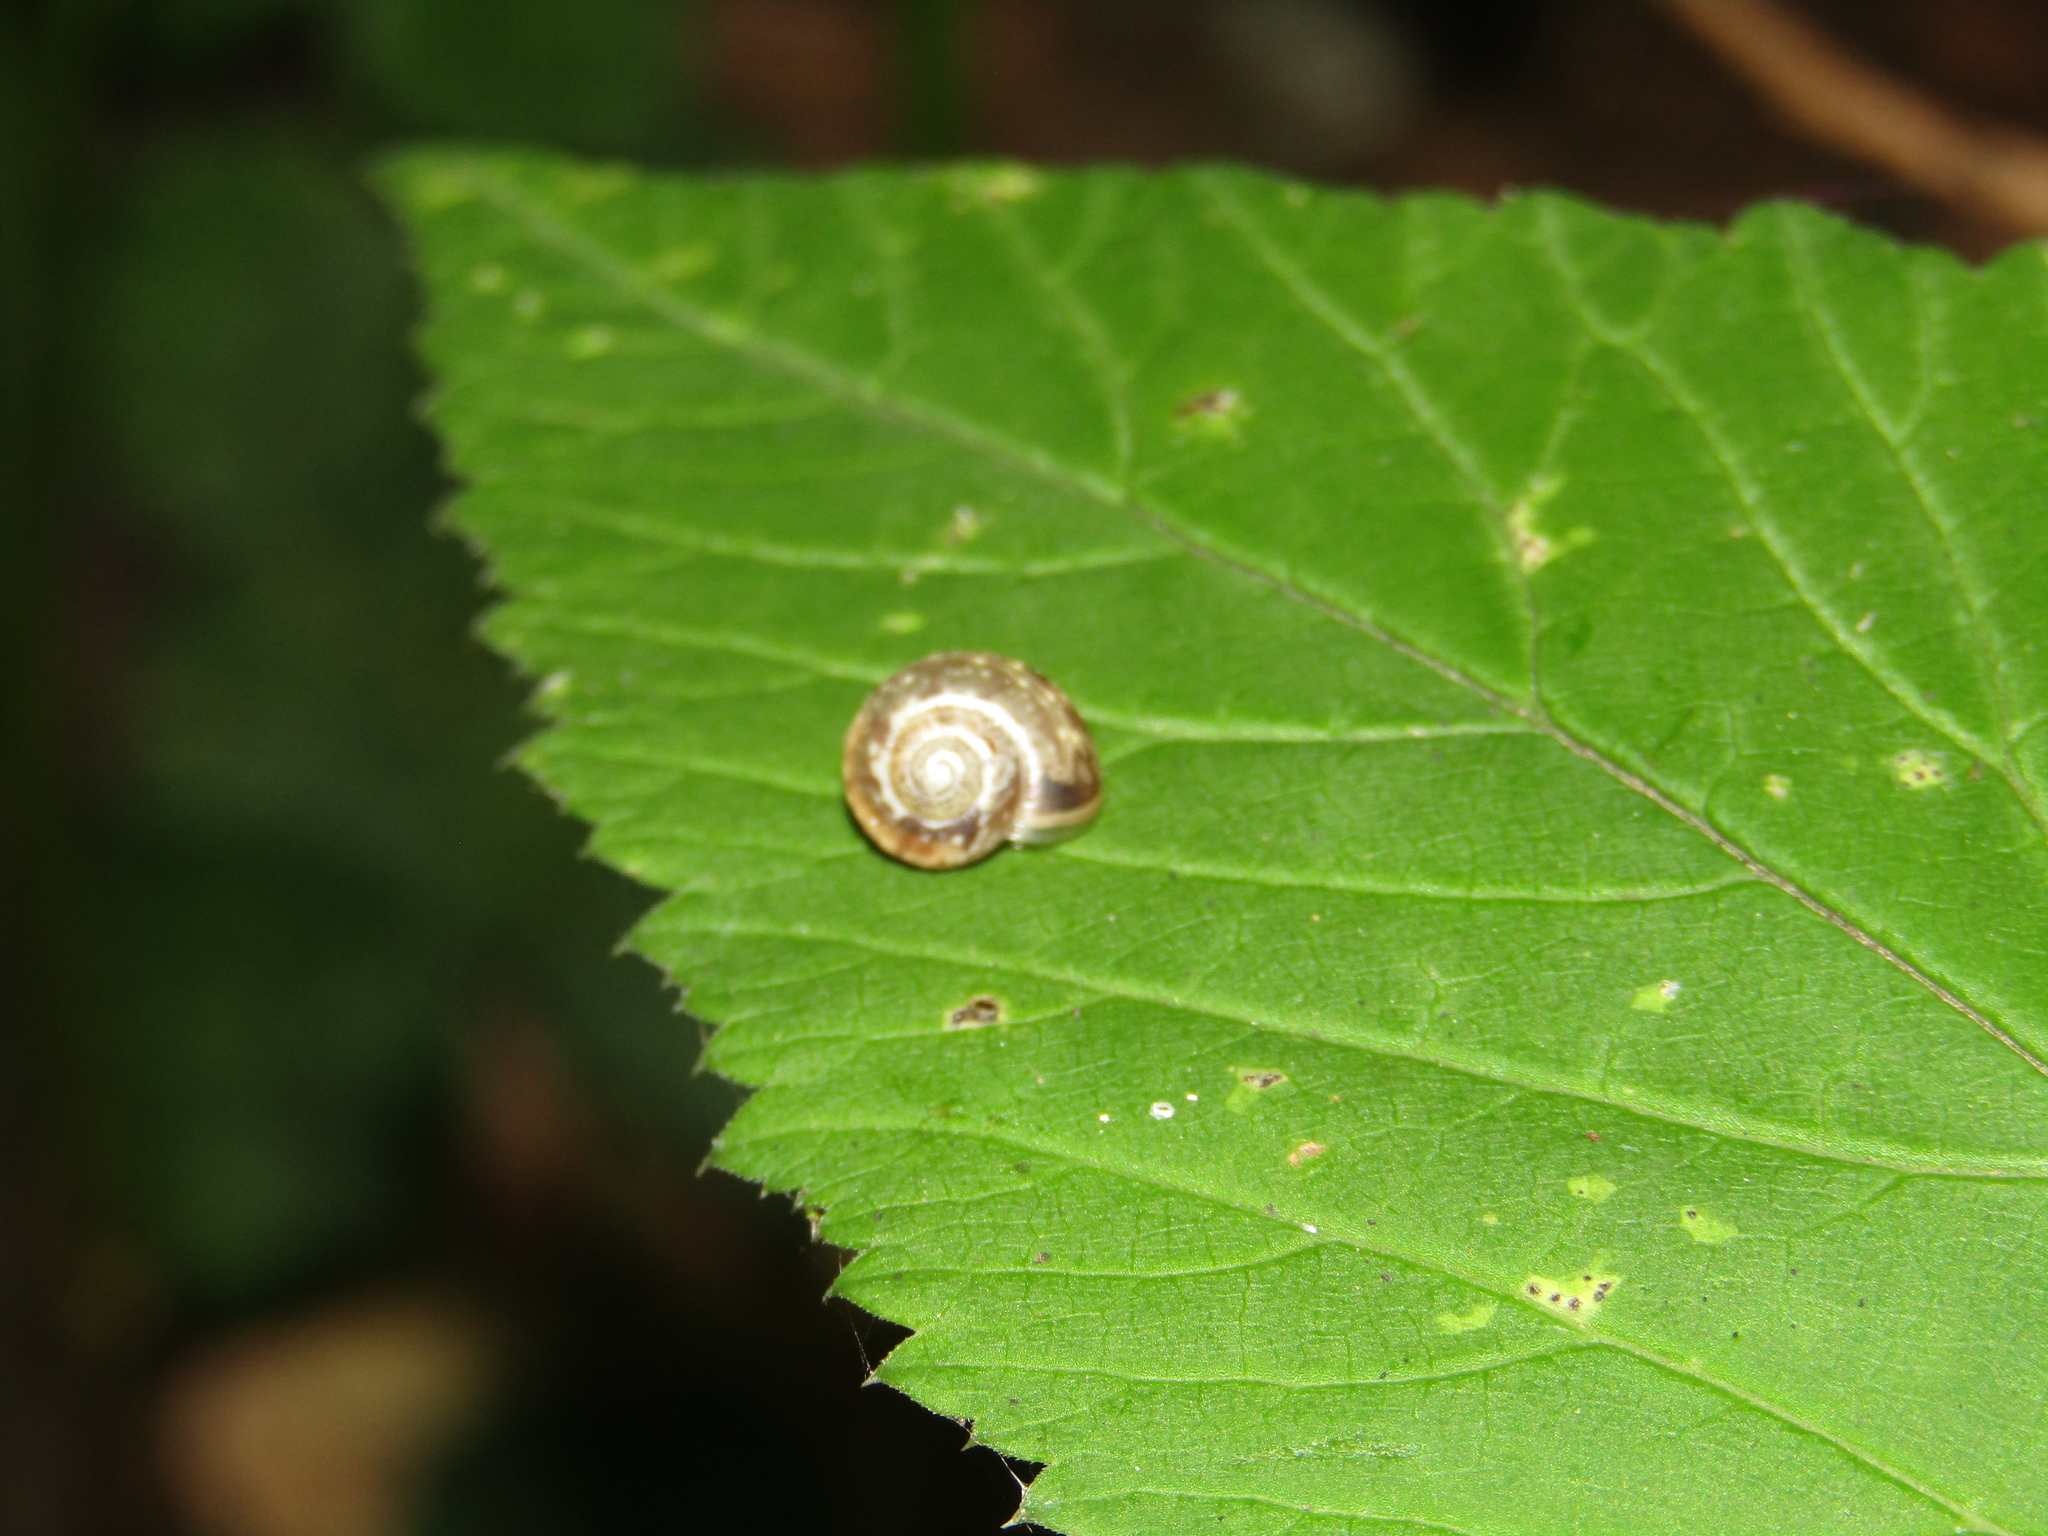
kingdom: Animalia
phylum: Mollusca
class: Gastropoda
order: Stylommatophora
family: Camaenidae
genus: Fruticicola
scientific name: Fruticicola fruticum
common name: Bush snail
